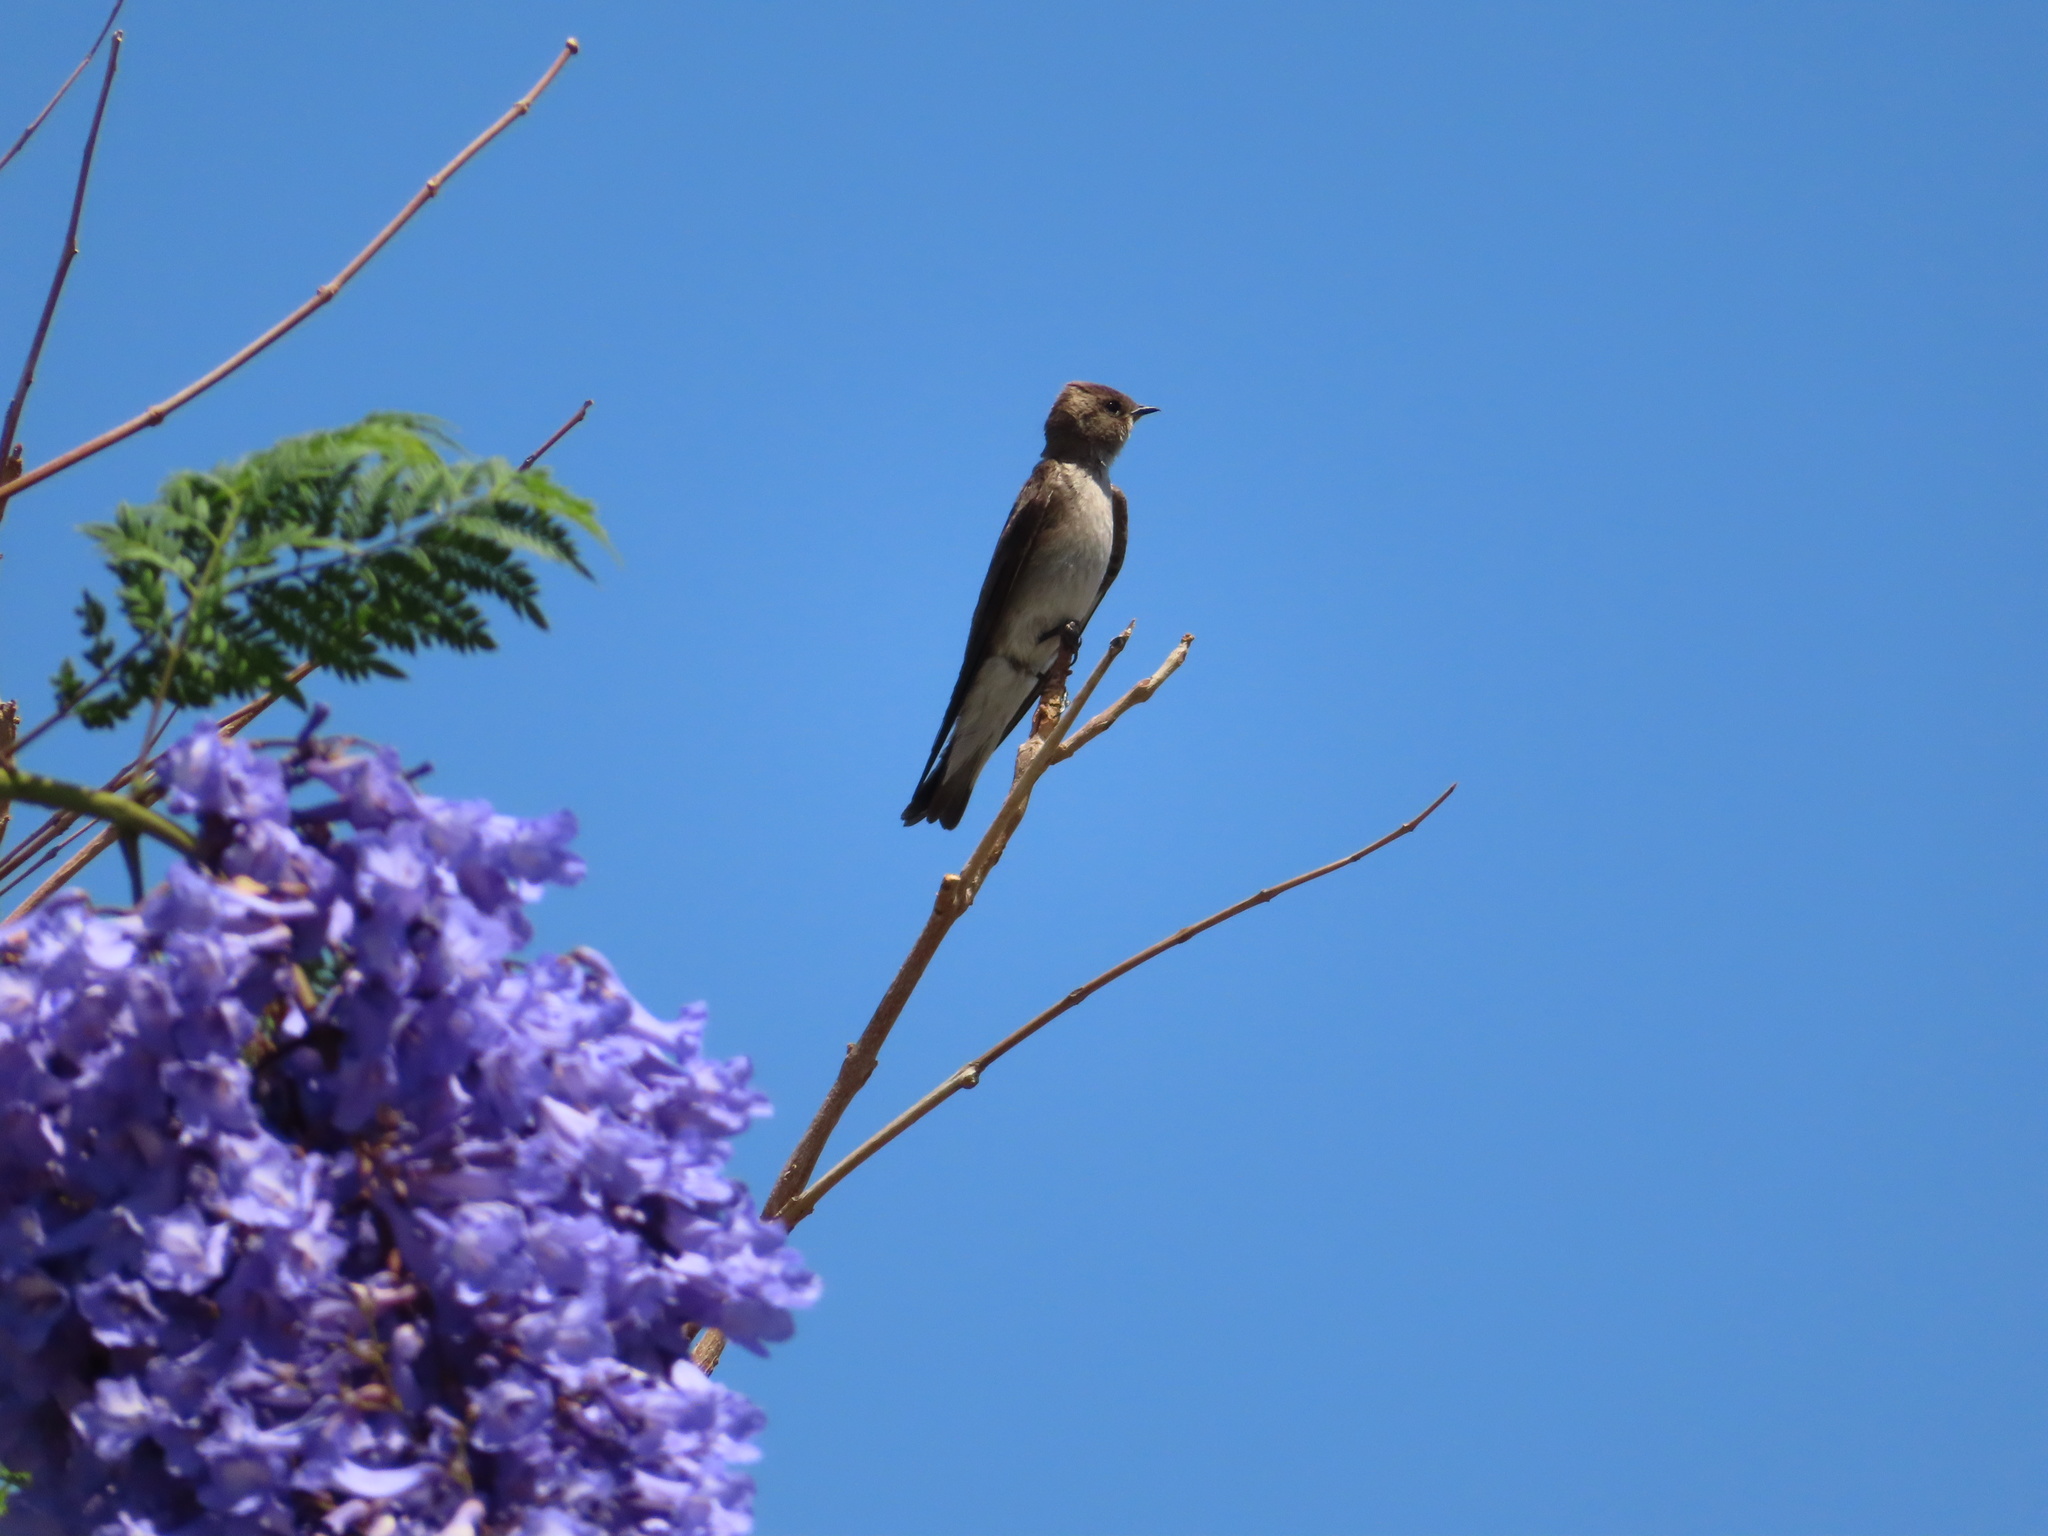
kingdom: Animalia
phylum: Chordata
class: Aves
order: Passeriformes
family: Hirundinidae
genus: Stelgidopteryx
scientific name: Stelgidopteryx serripennis
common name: Northern rough-winged swallow
